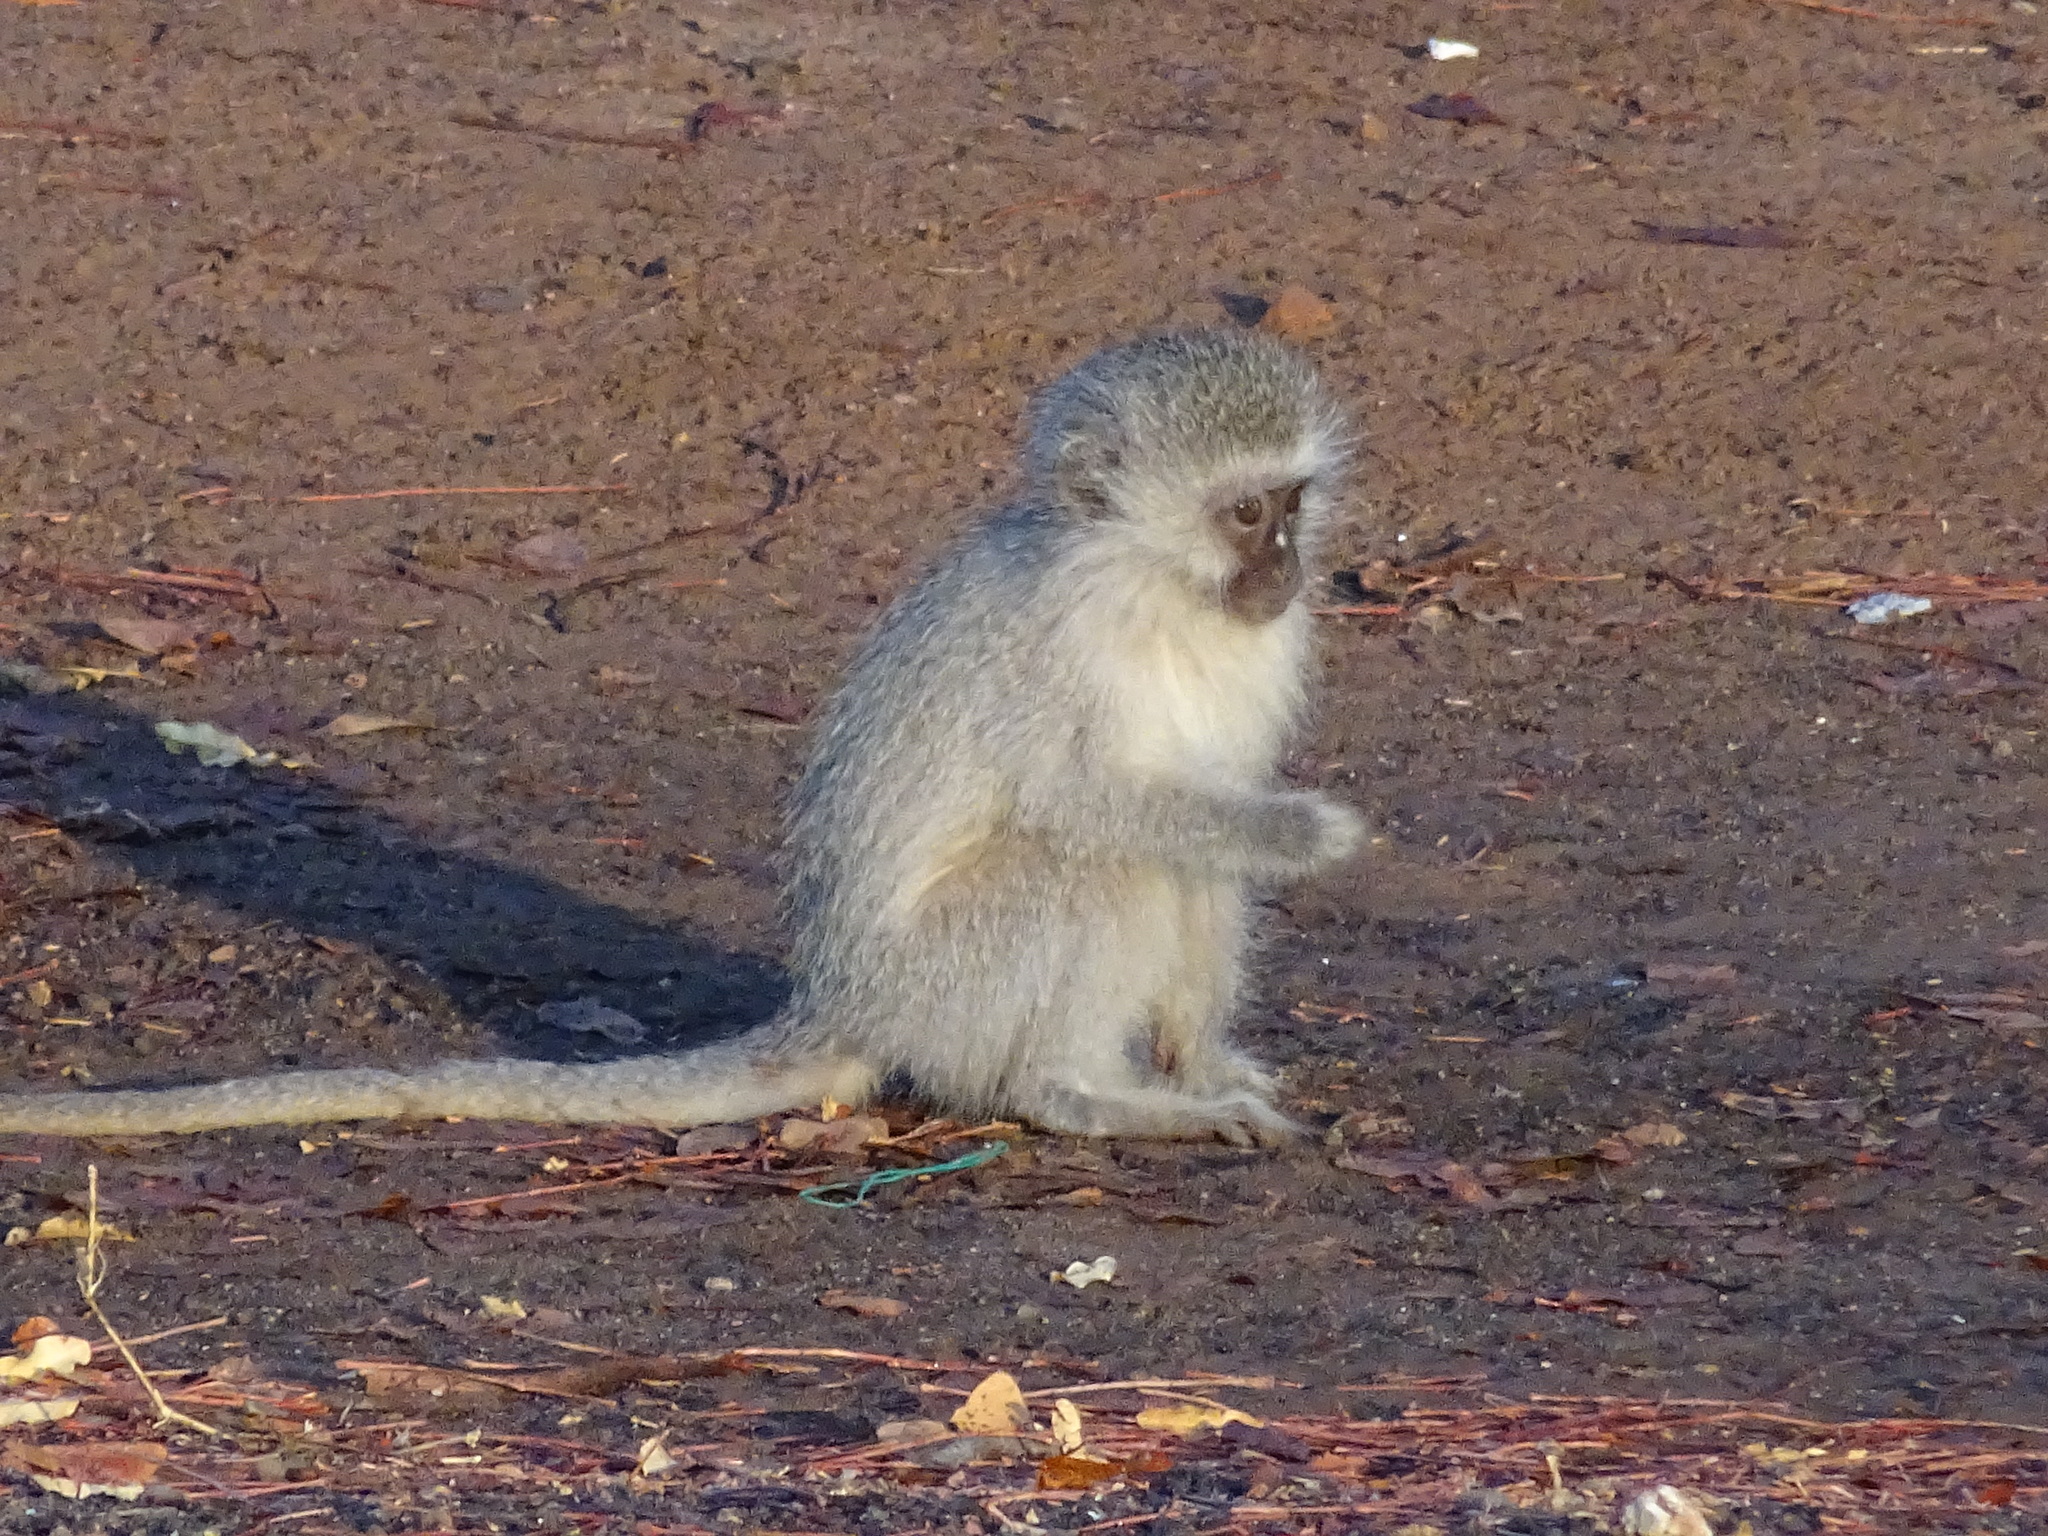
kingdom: Animalia
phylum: Chordata
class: Mammalia
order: Primates
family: Cercopithecidae
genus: Chlorocebus
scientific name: Chlorocebus pygerythrus
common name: Vervet monkey
